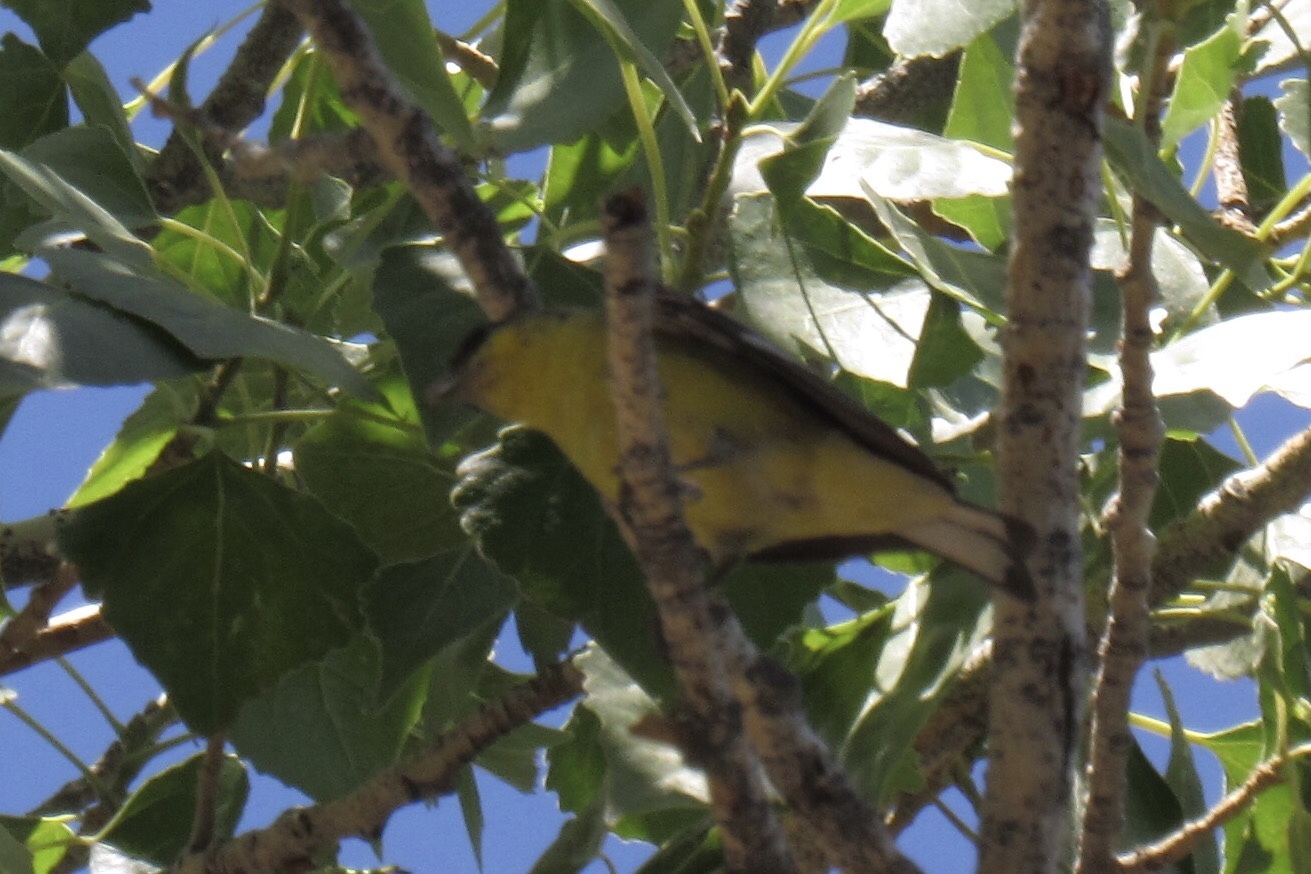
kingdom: Animalia
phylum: Chordata
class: Aves
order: Passeriformes
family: Fringillidae
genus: Spinus
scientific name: Spinus psaltria
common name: Lesser goldfinch
